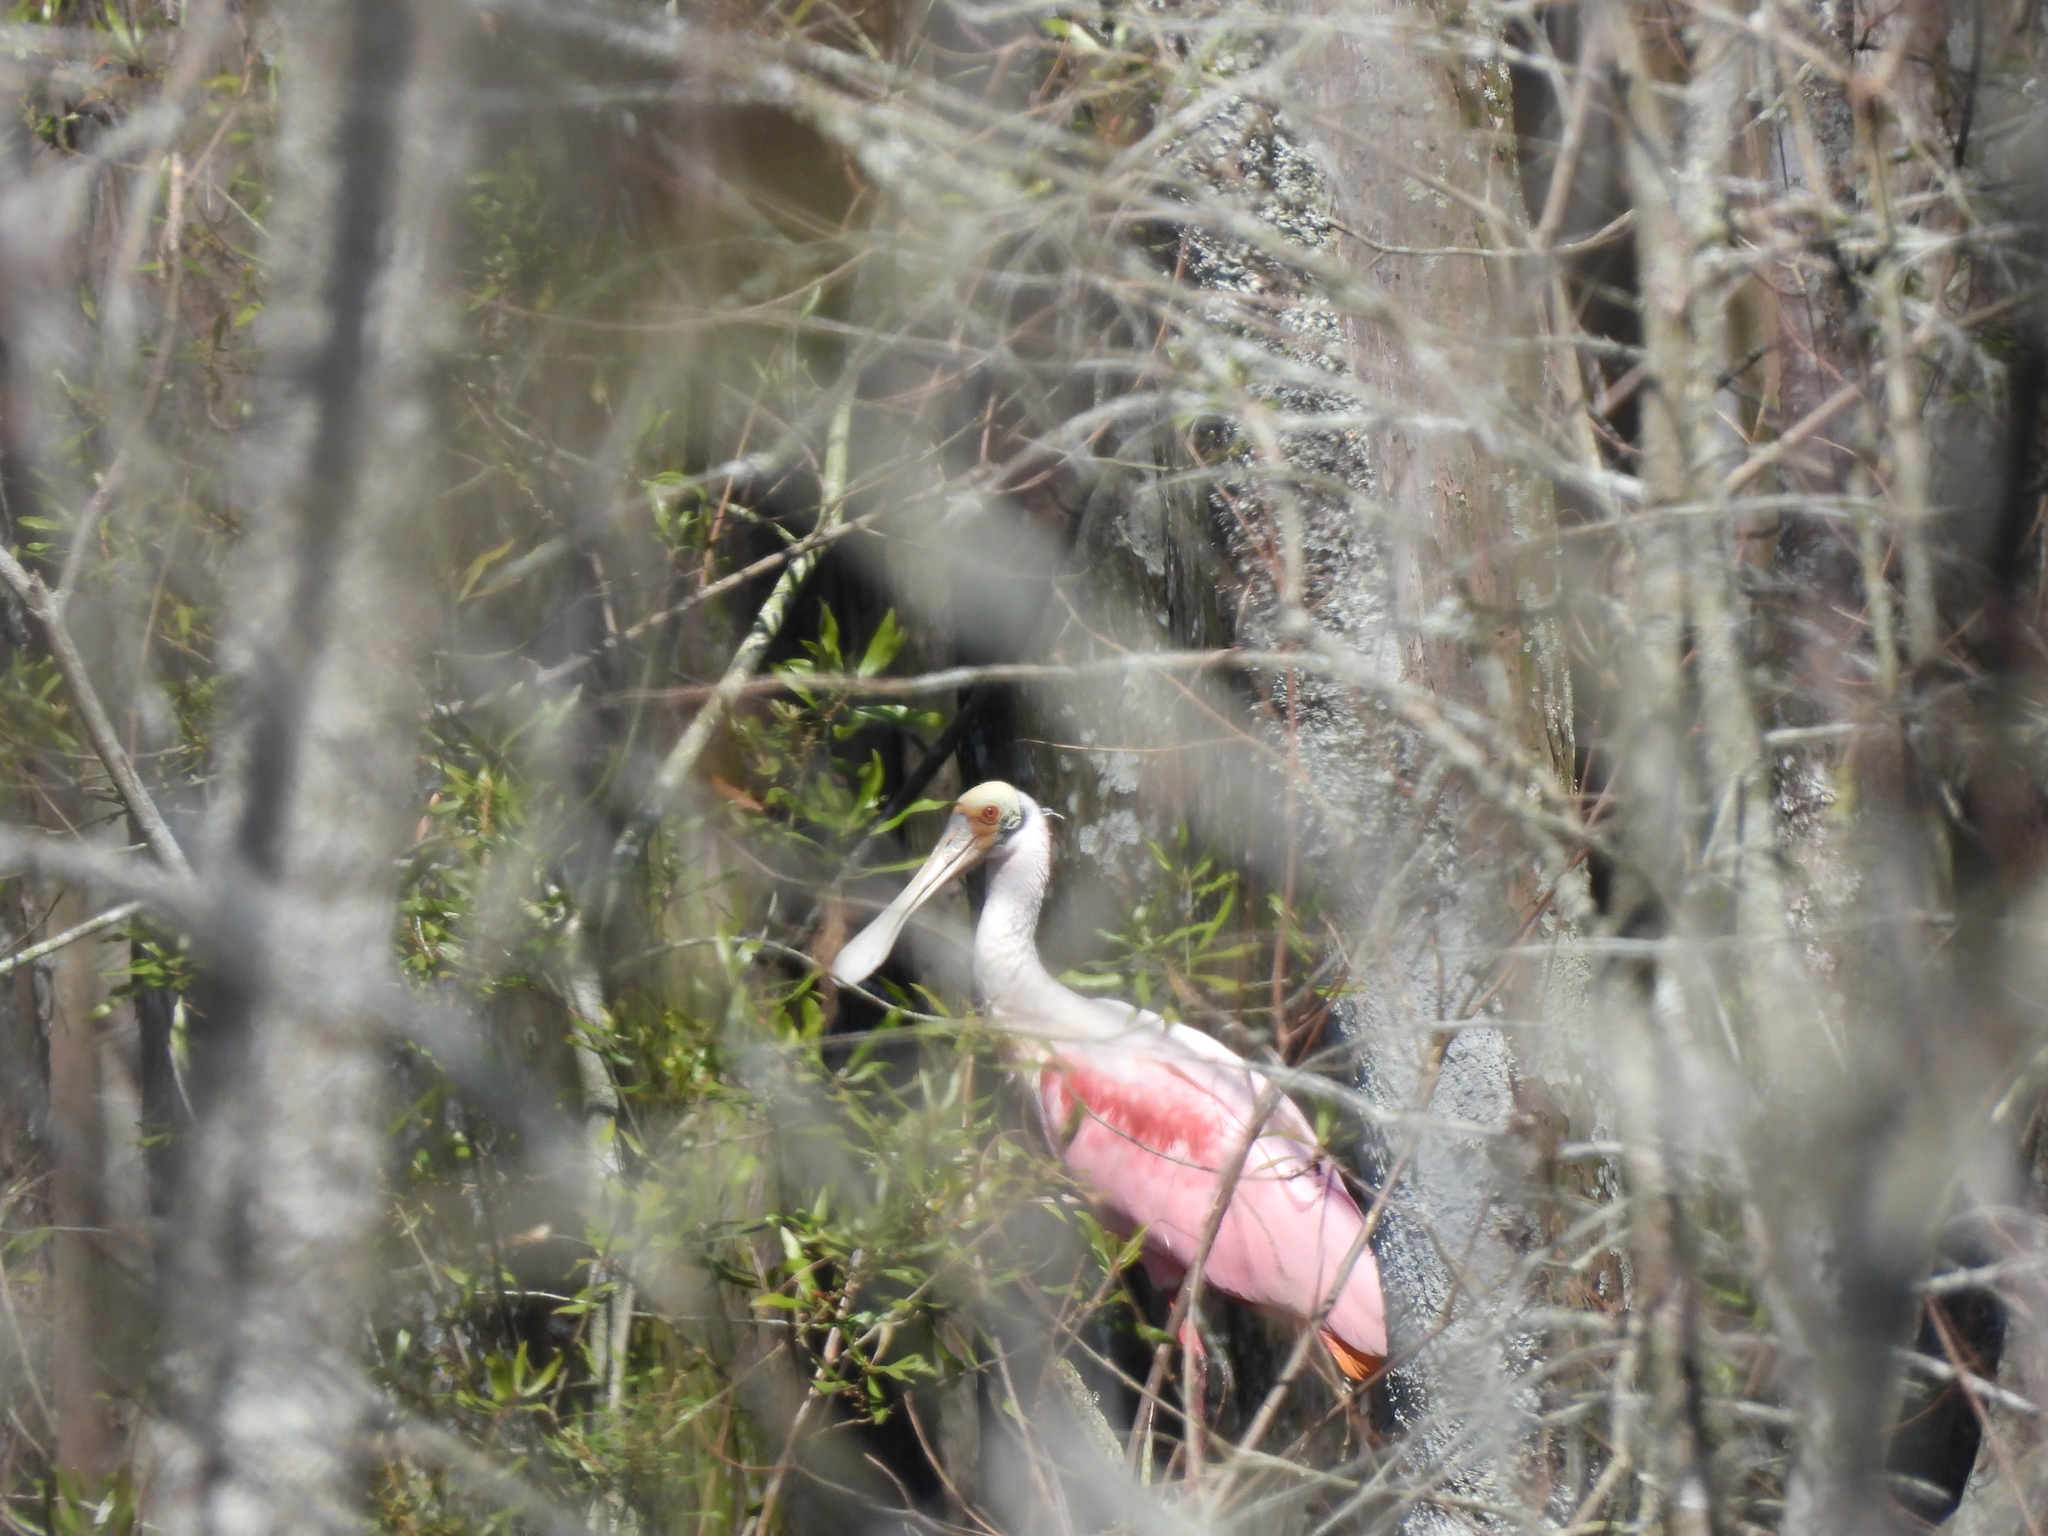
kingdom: Animalia
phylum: Chordata
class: Aves
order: Pelecaniformes
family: Threskiornithidae
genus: Platalea
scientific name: Platalea ajaja
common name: Roseate spoonbill
